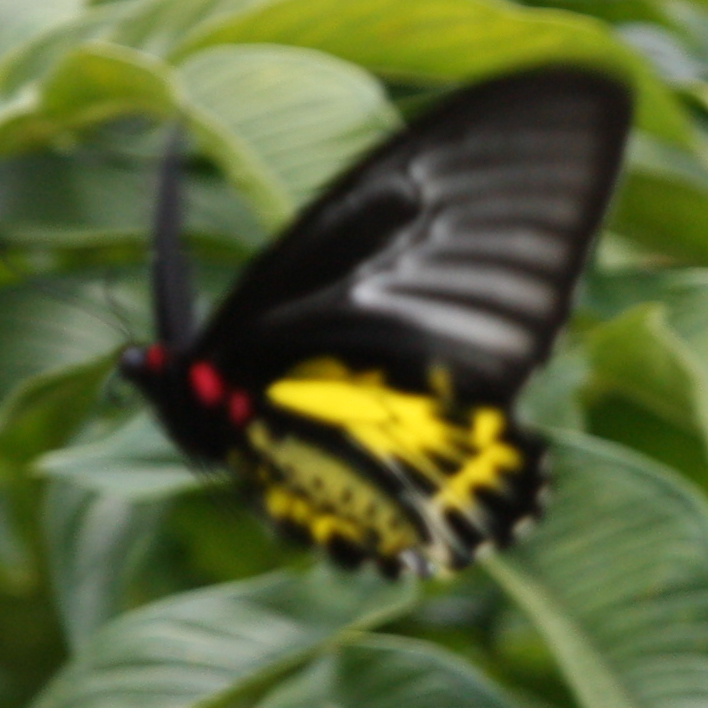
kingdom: Animalia
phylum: Arthropoda
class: Insecta
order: Lepidoptera
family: Papilionidae
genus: Troides
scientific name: Troides minos
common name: Malabar birdwing
